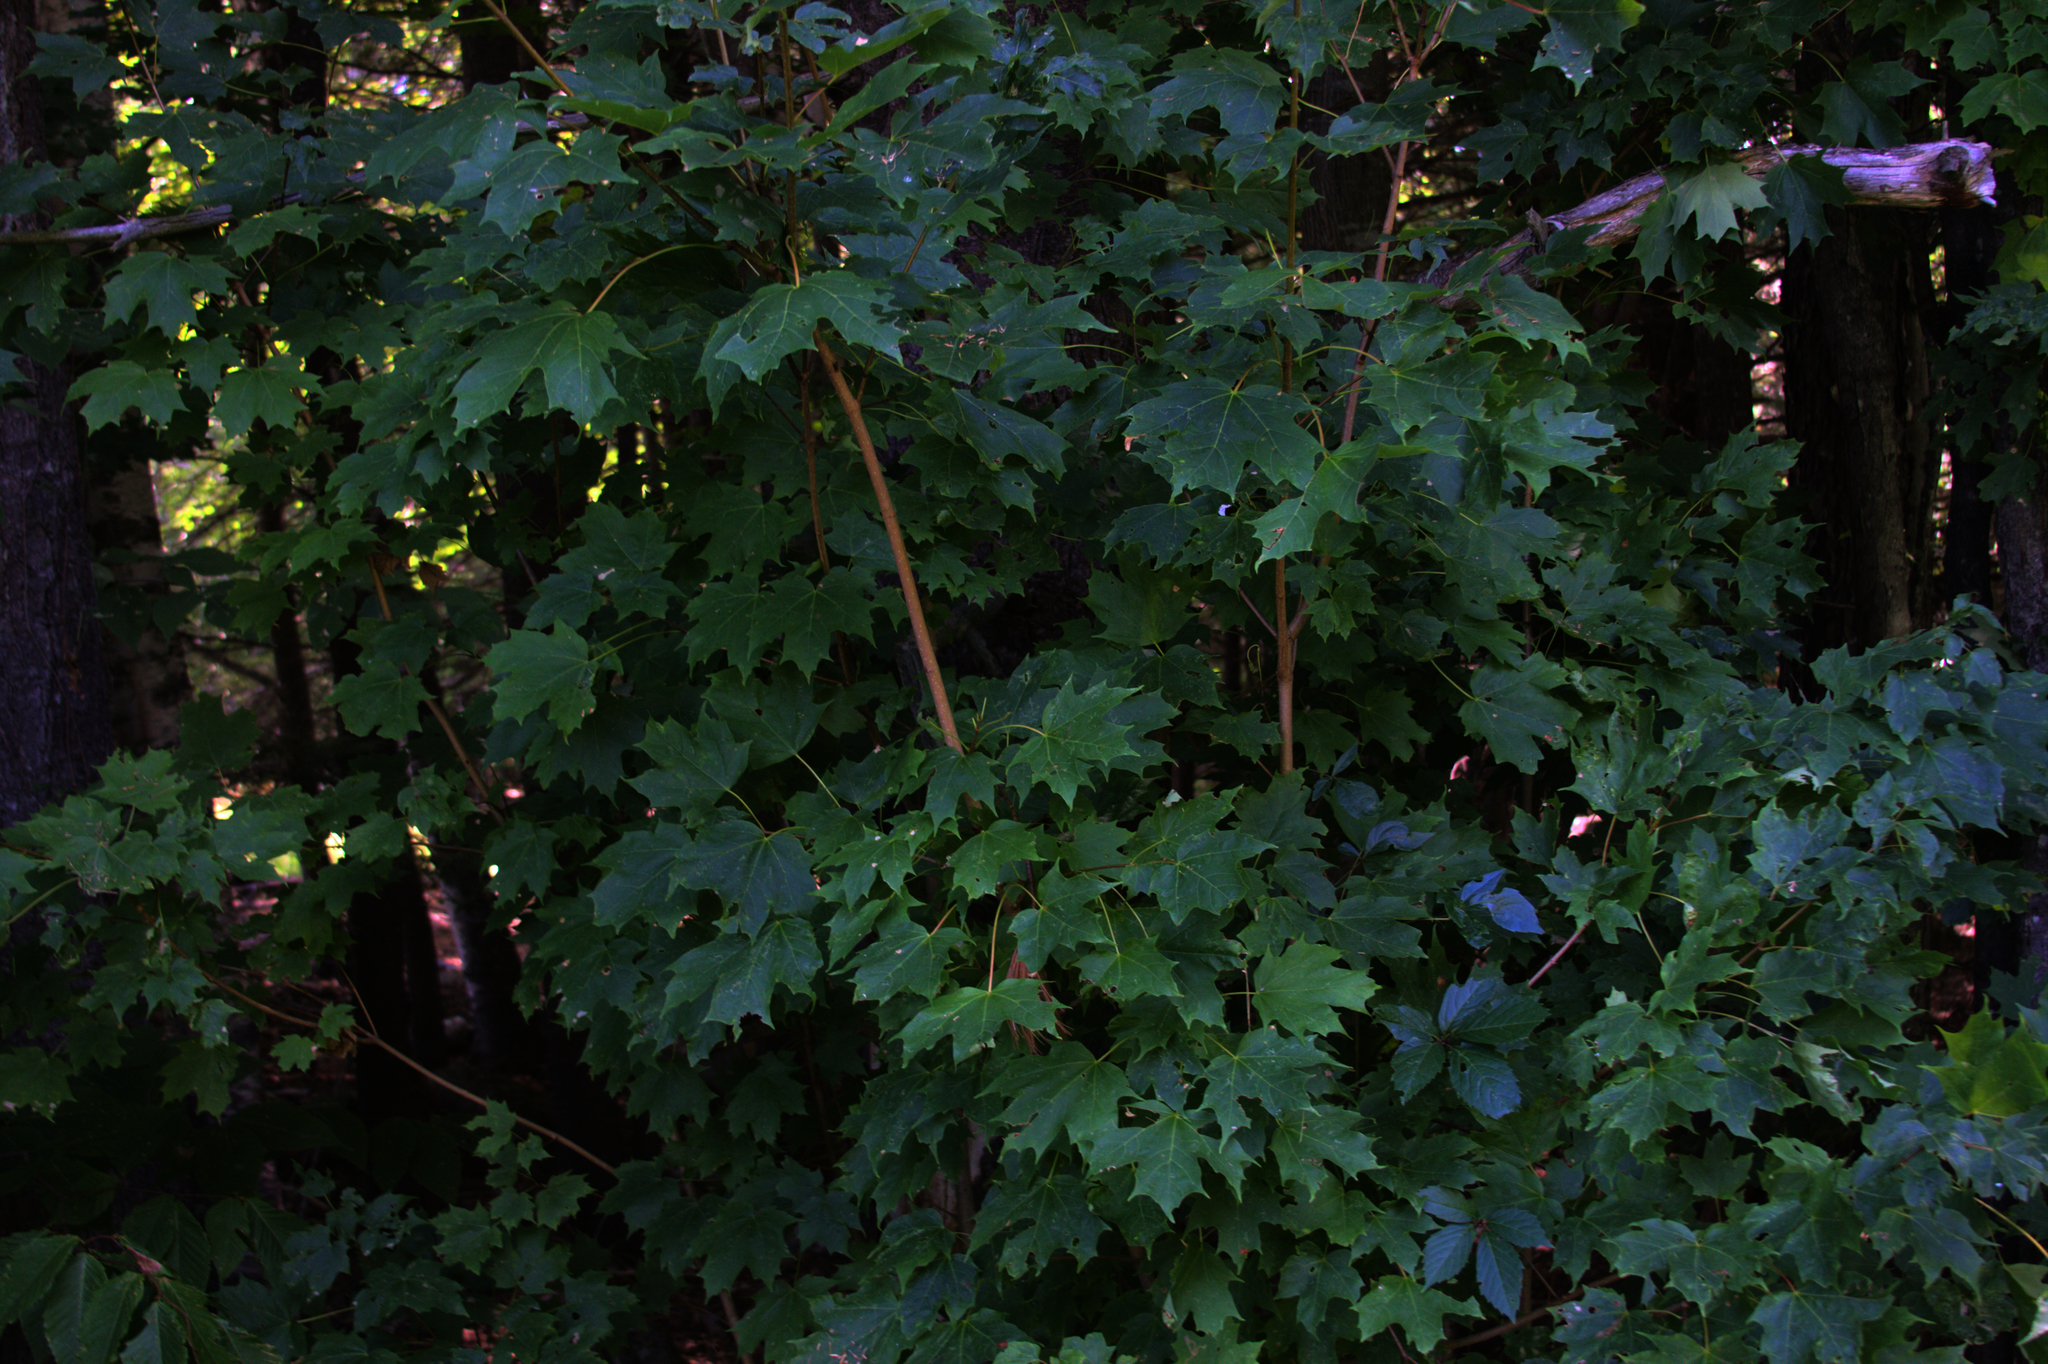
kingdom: Plantae
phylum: Tracheophyta
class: Magnoliopsida
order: Sapindales
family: Sapindaceae
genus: Acer
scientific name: Acer saccharum
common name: Sugar maple
